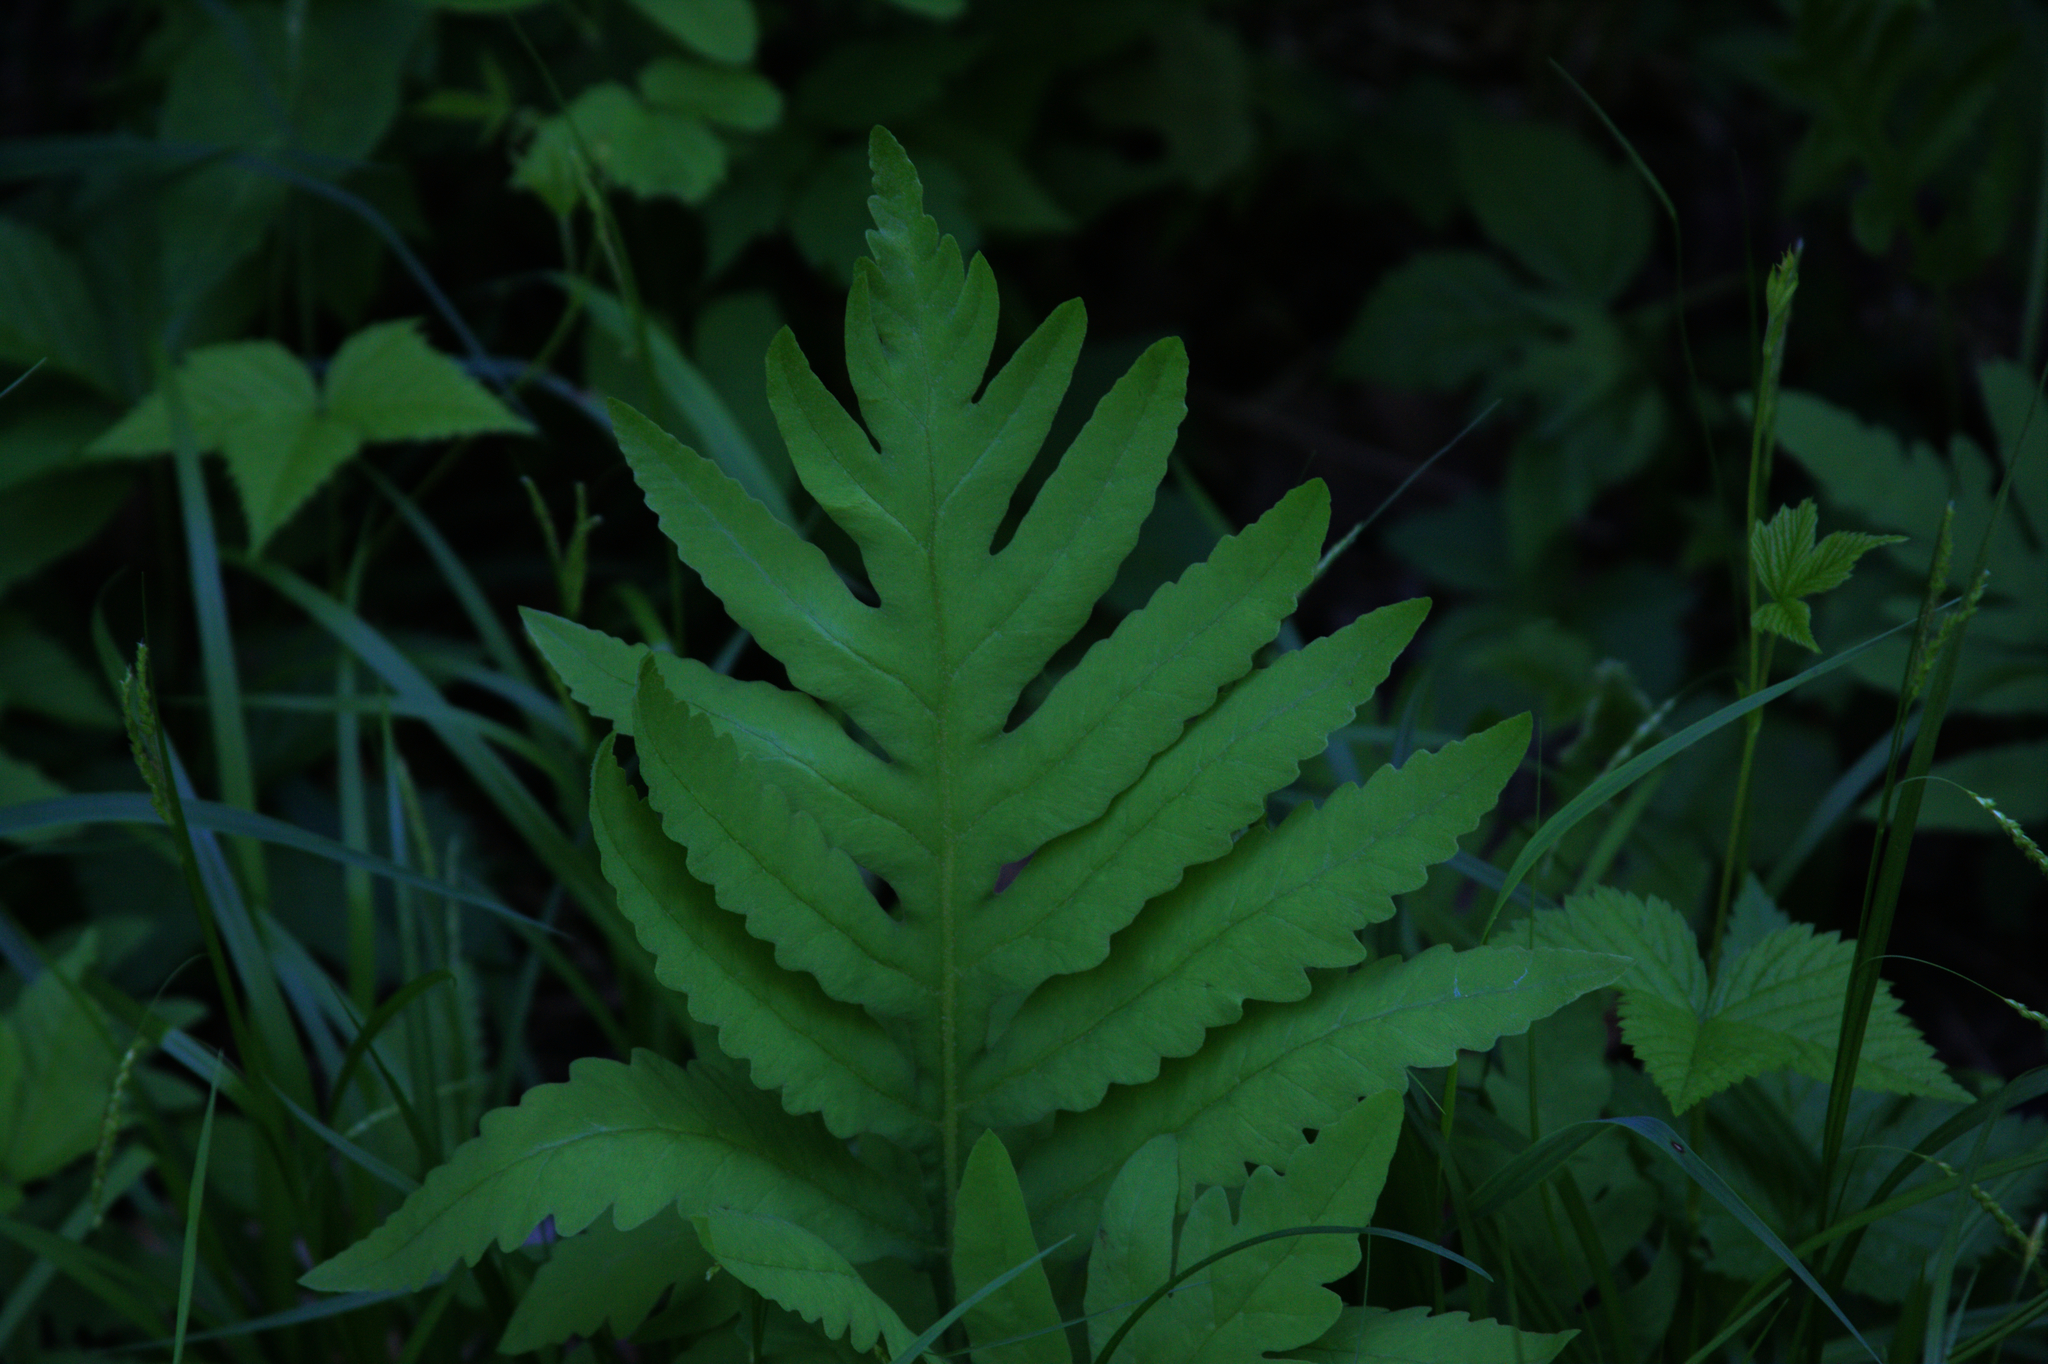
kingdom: Plantae
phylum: Tracheophyta
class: Polypodiopsida
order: Polypodiales
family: Onocleaceae
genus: Onoclea
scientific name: Onoclea sensibilis
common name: Sensitive fern
